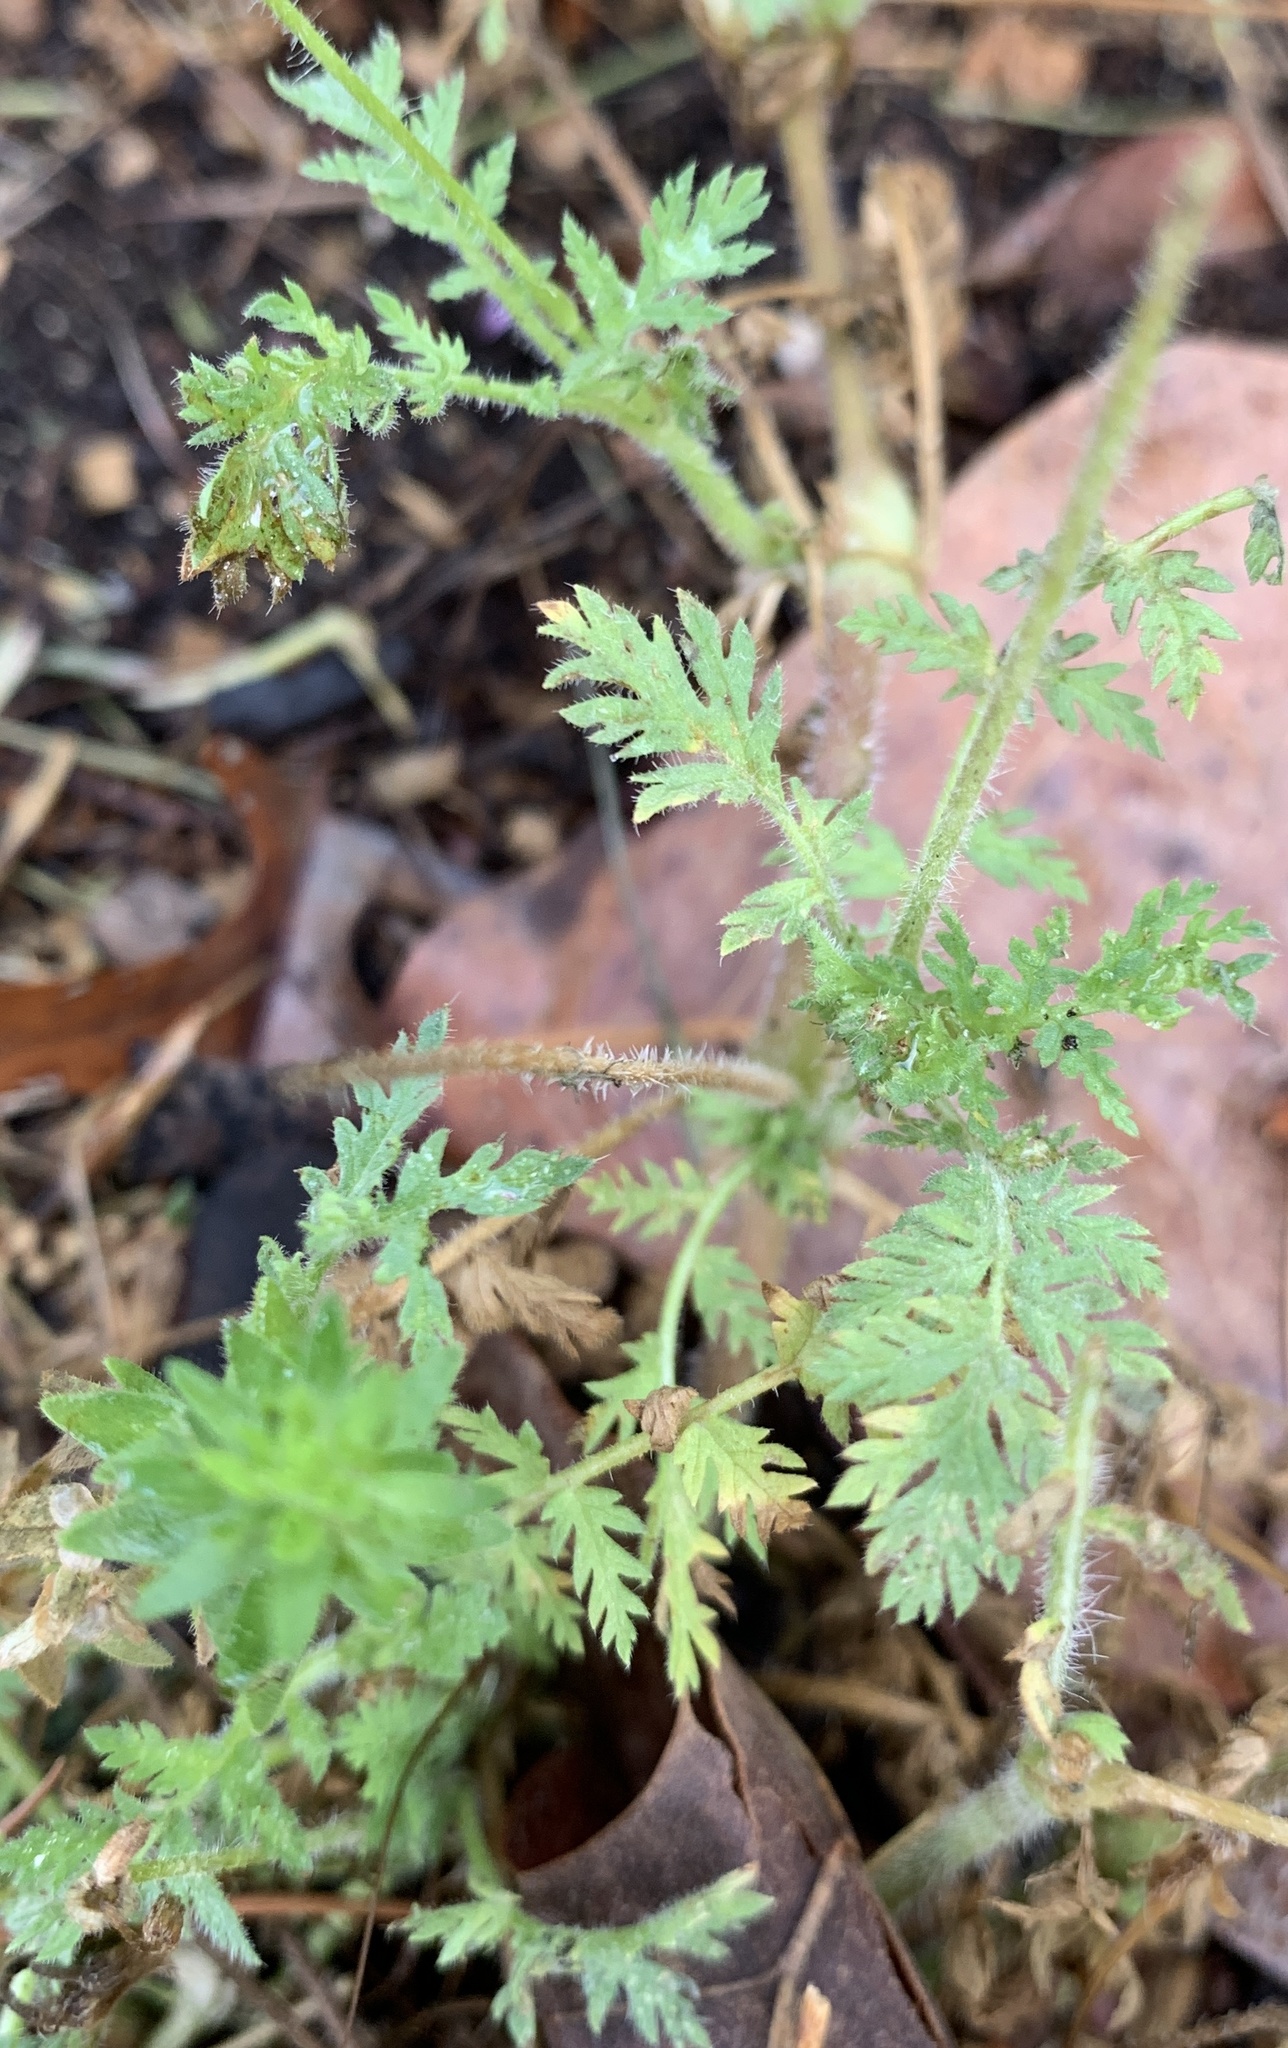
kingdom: Plantae
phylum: Tracheophyta
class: Magnoliopsida
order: Geraniales
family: Geraniaceae
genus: Erodium
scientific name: Erodium cicutarium
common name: Common stork's-bill
